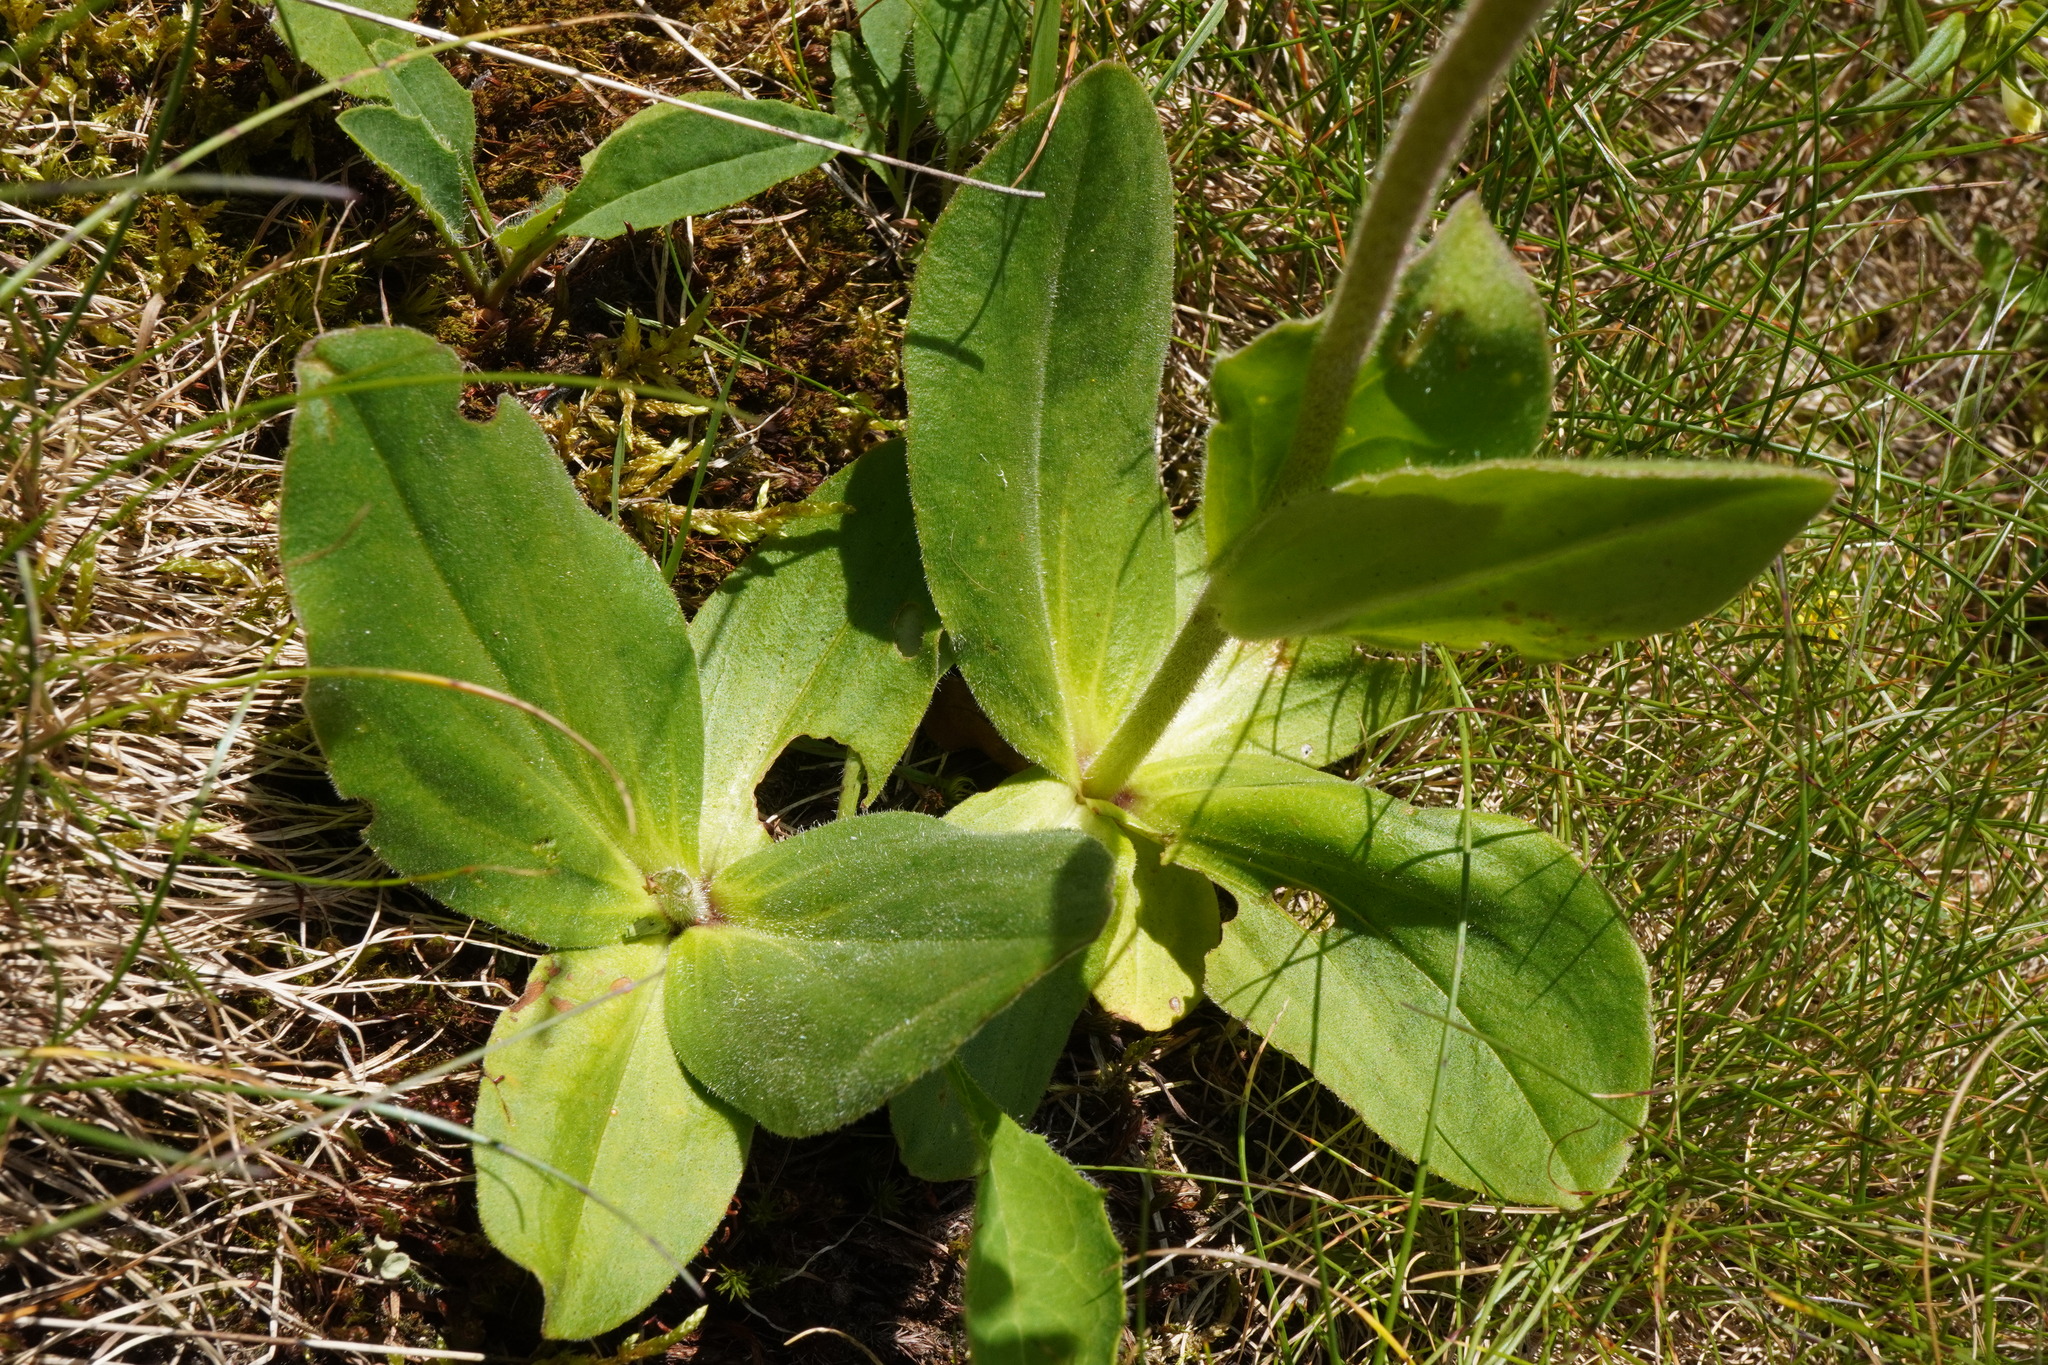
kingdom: Plantae
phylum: Tracheophyta
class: Magnoliopsida
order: Asterales
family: Asteraceae
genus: Arnica
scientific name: Arnica montana
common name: Leopard's bane
